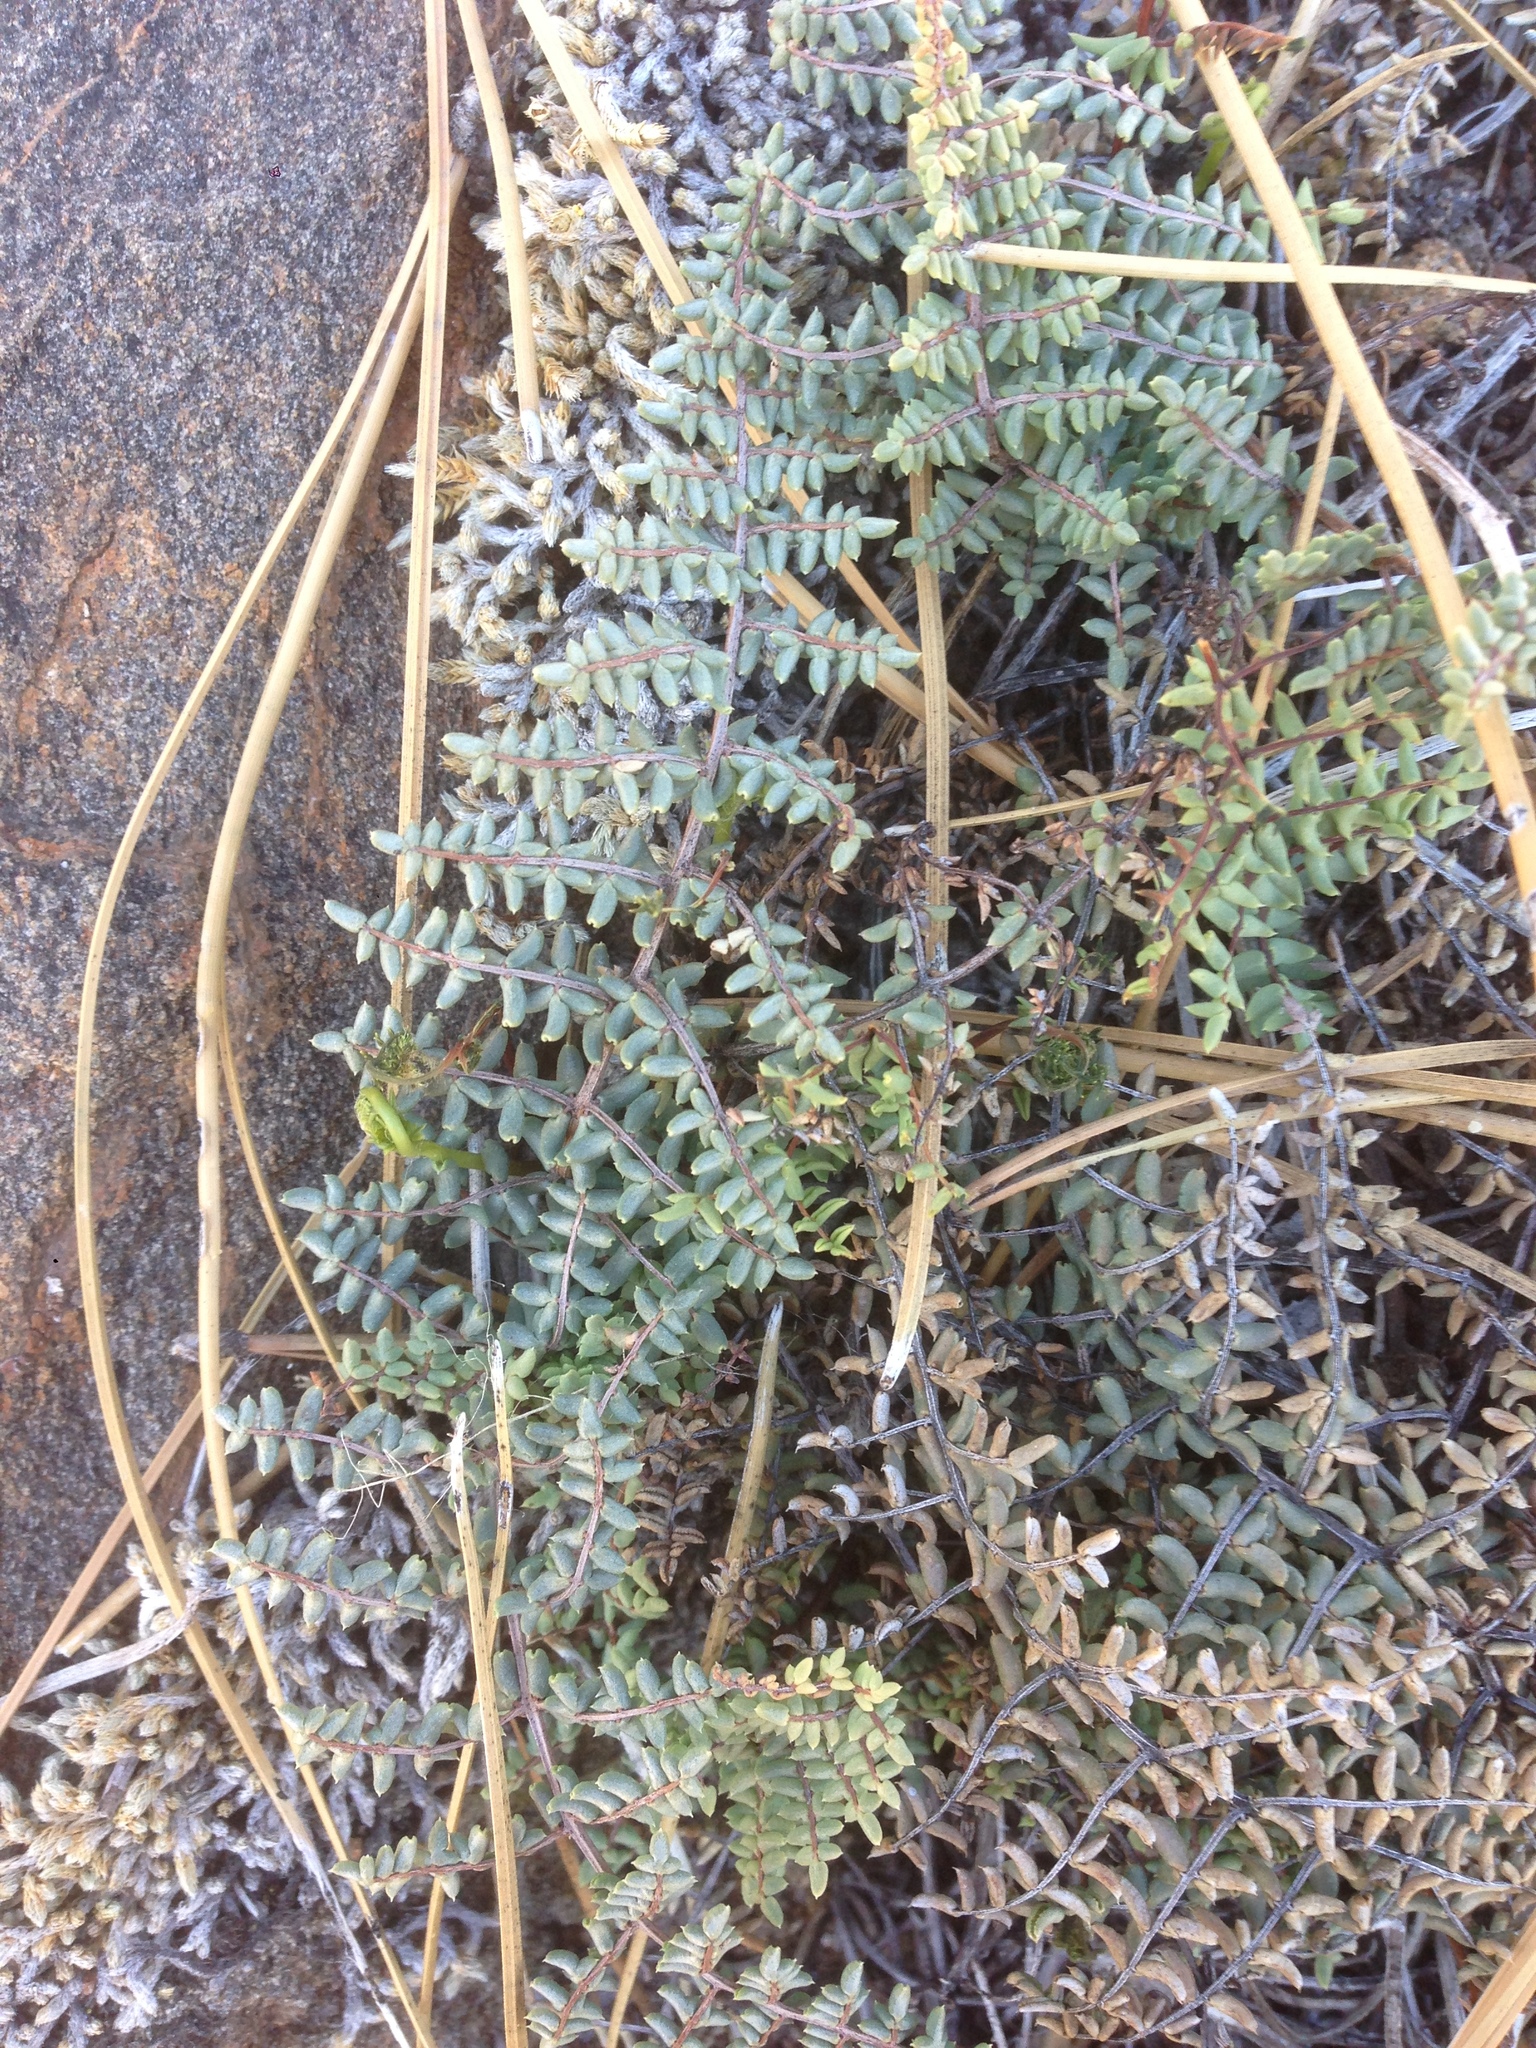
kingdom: Plantae
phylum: Tracheophyta
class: Polypodiopsida
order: Polypodiales
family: Pteridaceae
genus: Pellaea
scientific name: Pellaea mucronata
